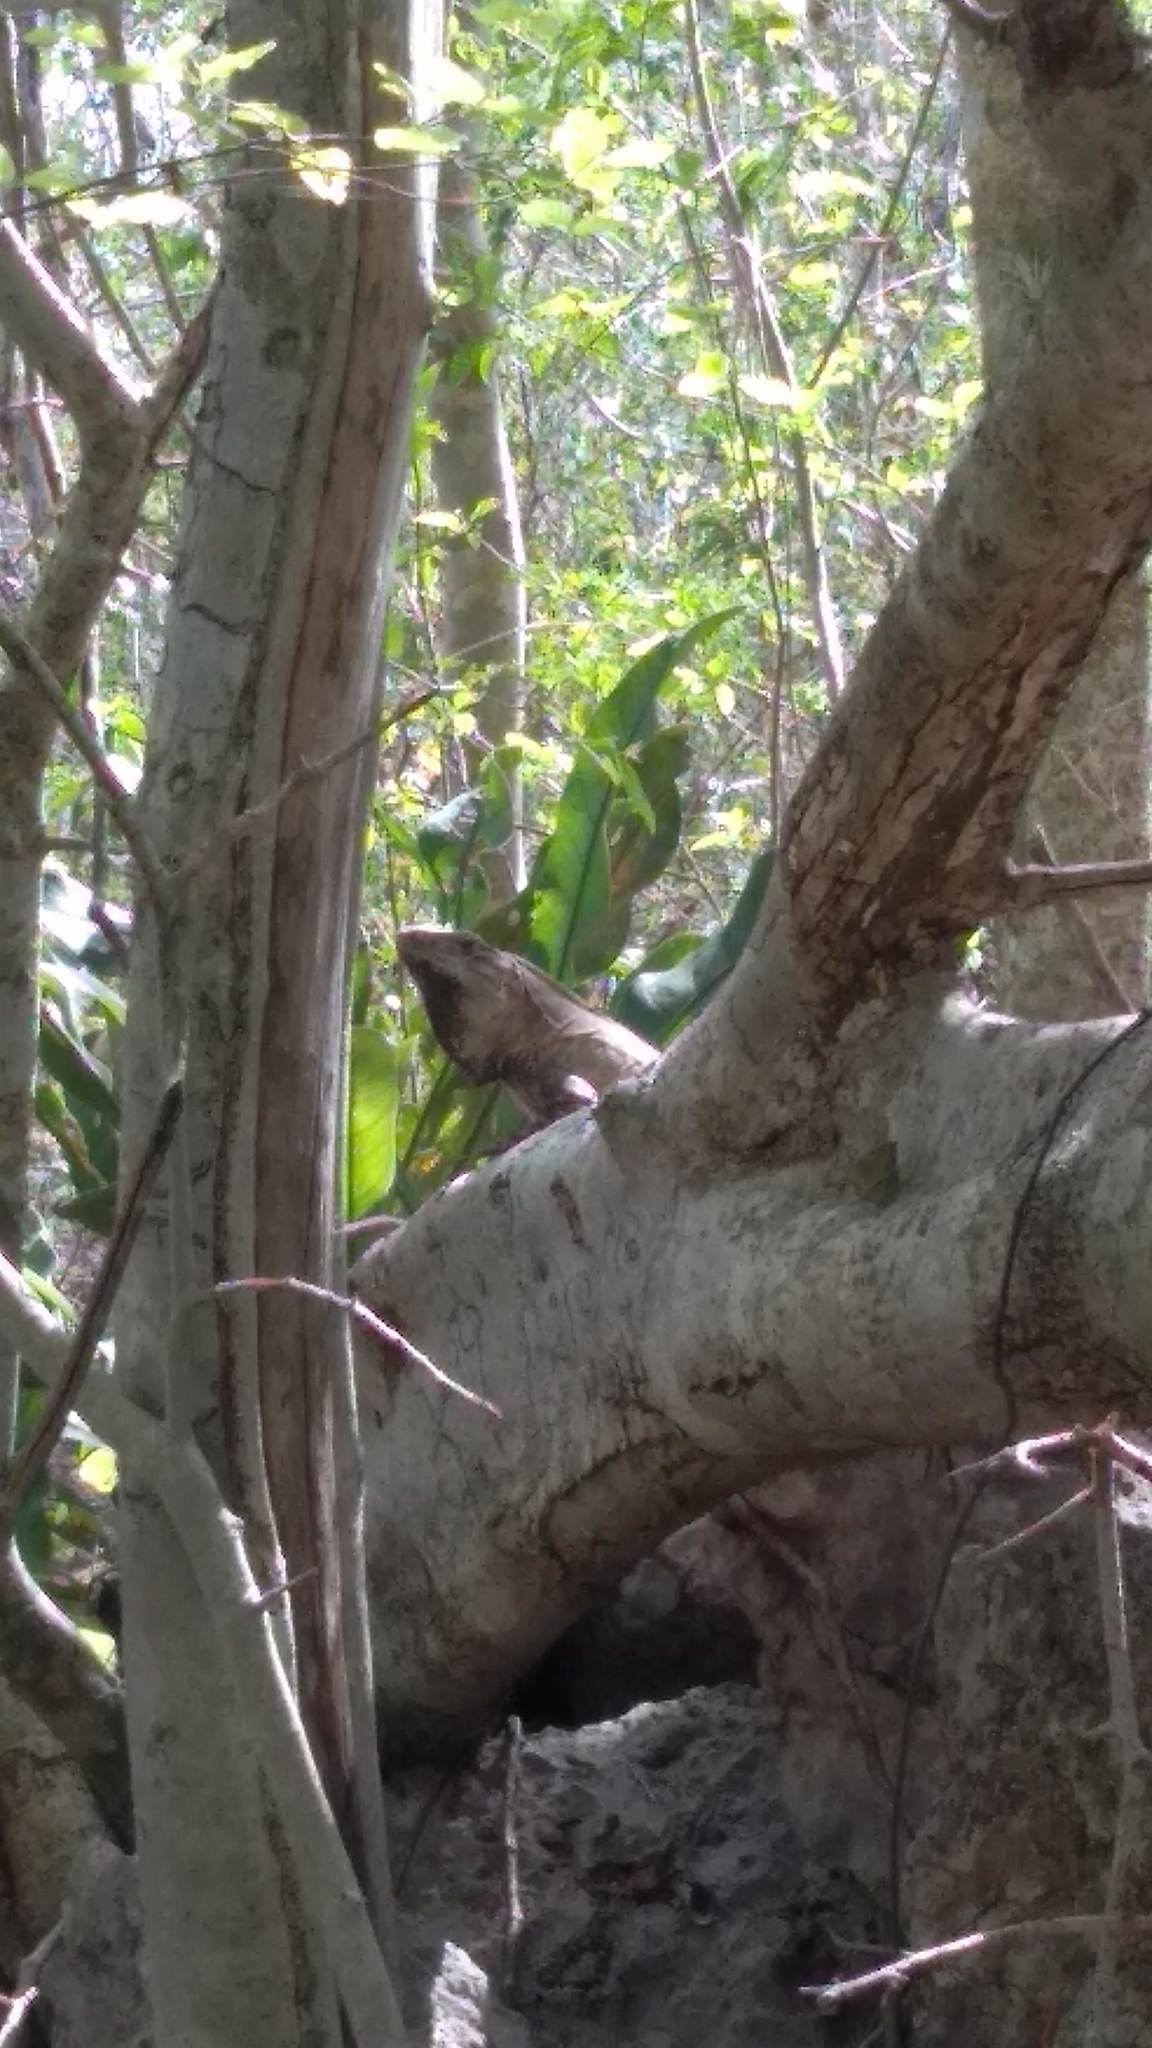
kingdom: Animalia
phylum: Chordata
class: Squamata
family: Iguanidae
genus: Ctenosaura
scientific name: Ctenosaura similis
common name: Black spiny-tailed iguana
